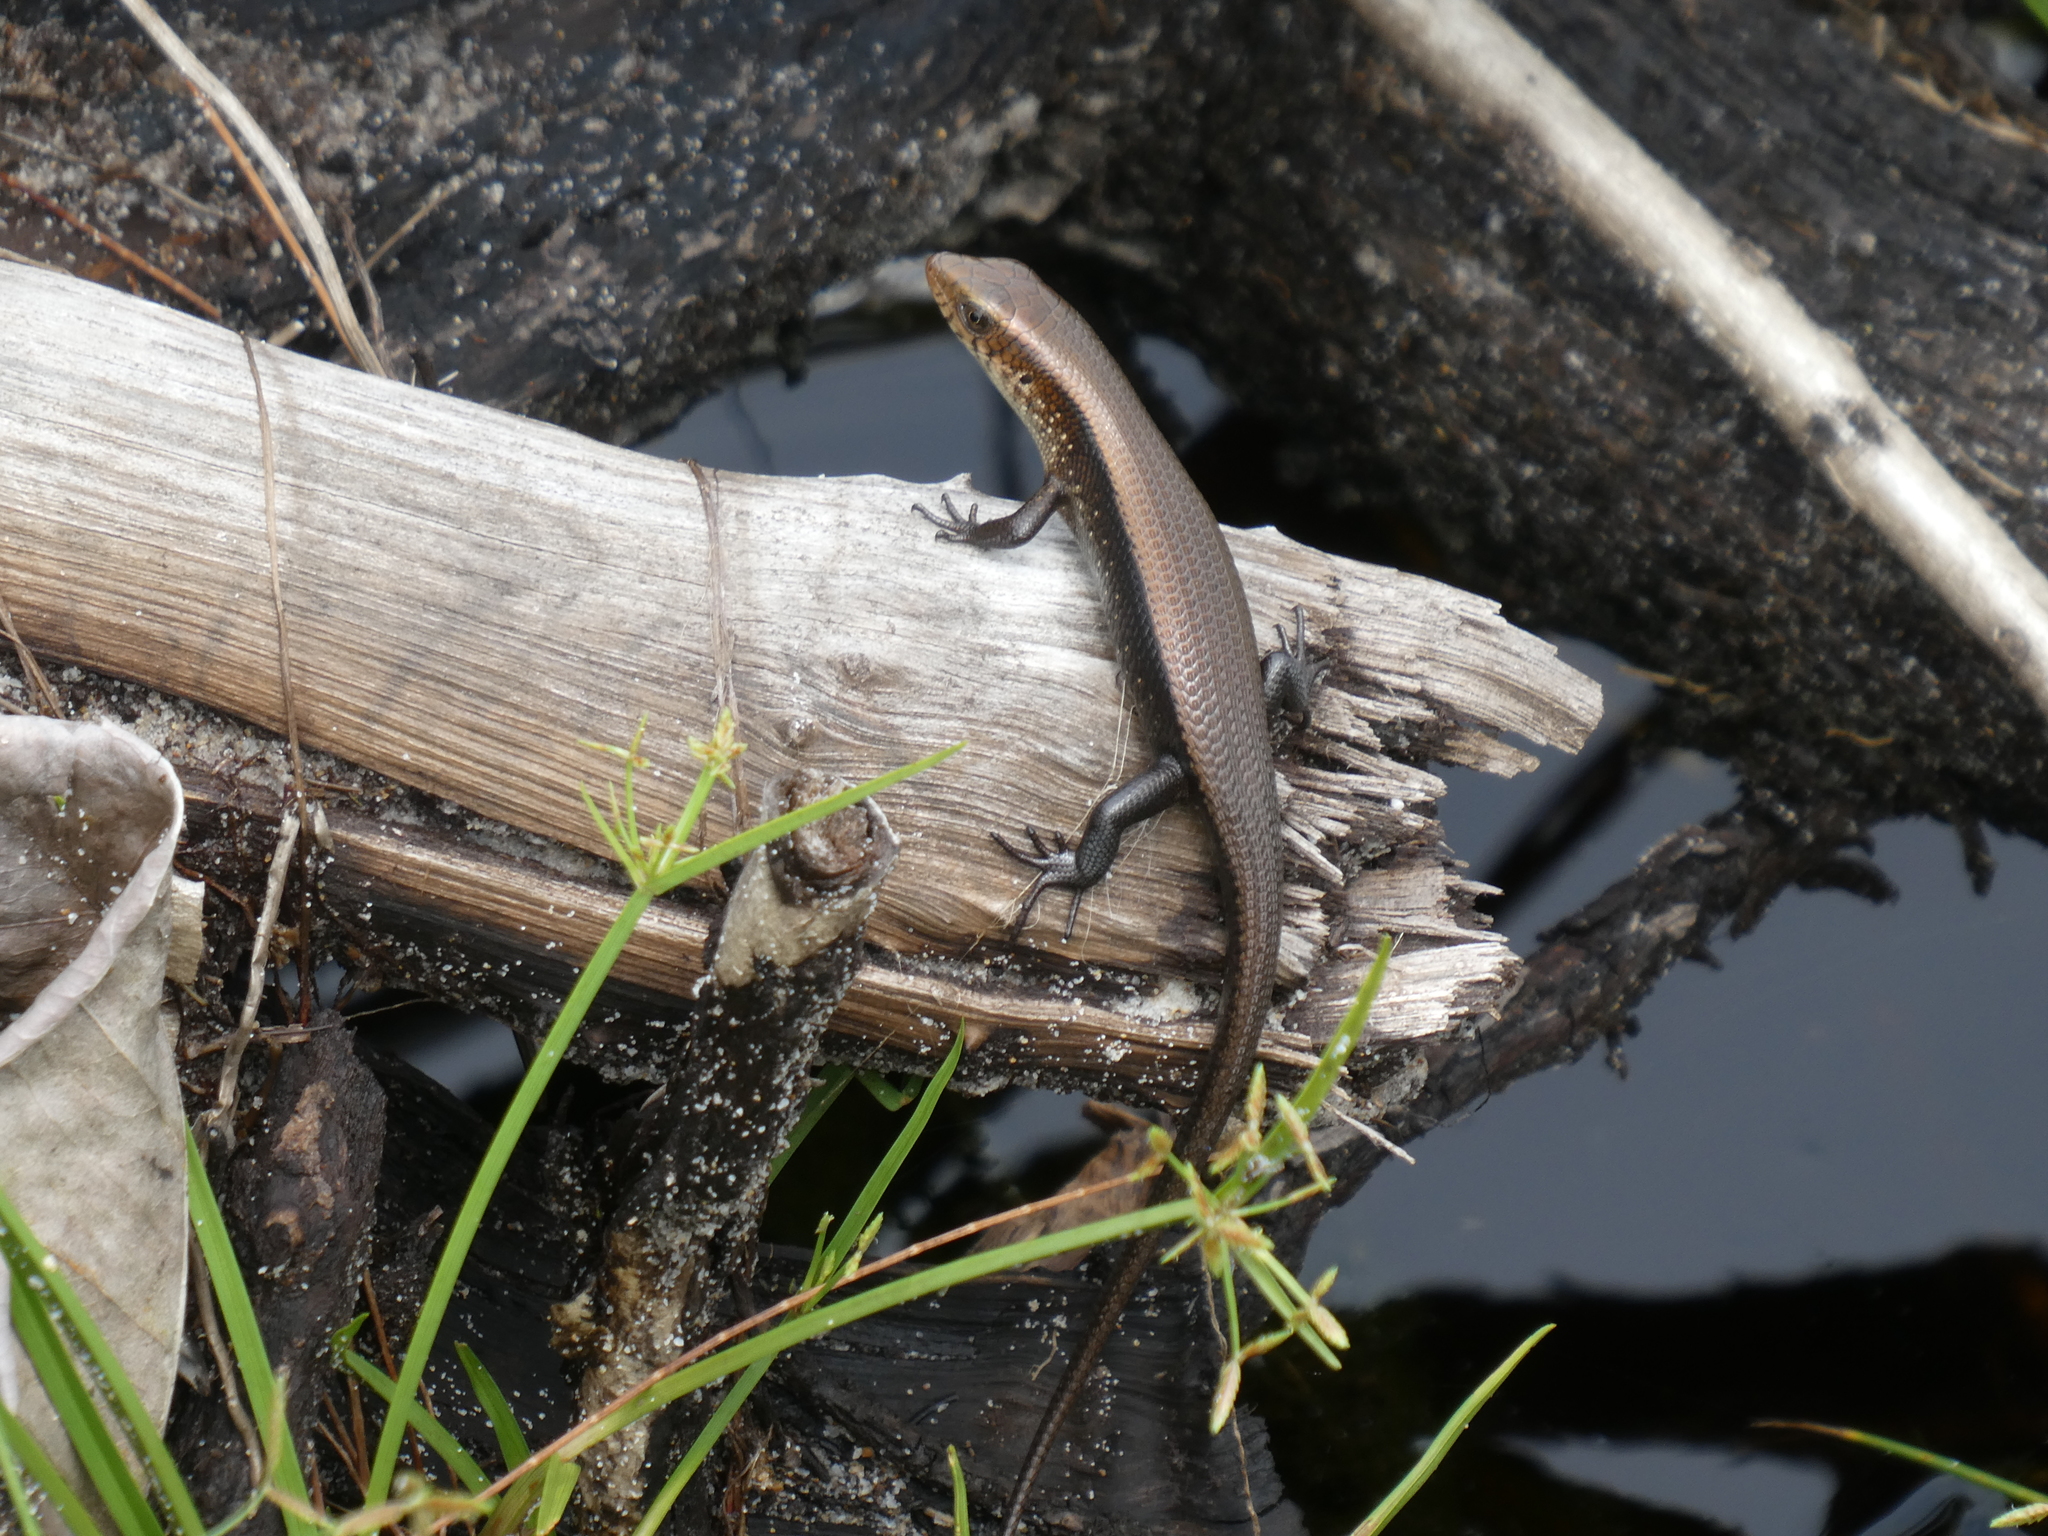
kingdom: Animalia
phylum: Chordata
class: Squamata
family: Scincidae
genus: Eutropis
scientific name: Eutropis multifasciata
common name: Common mabuya
